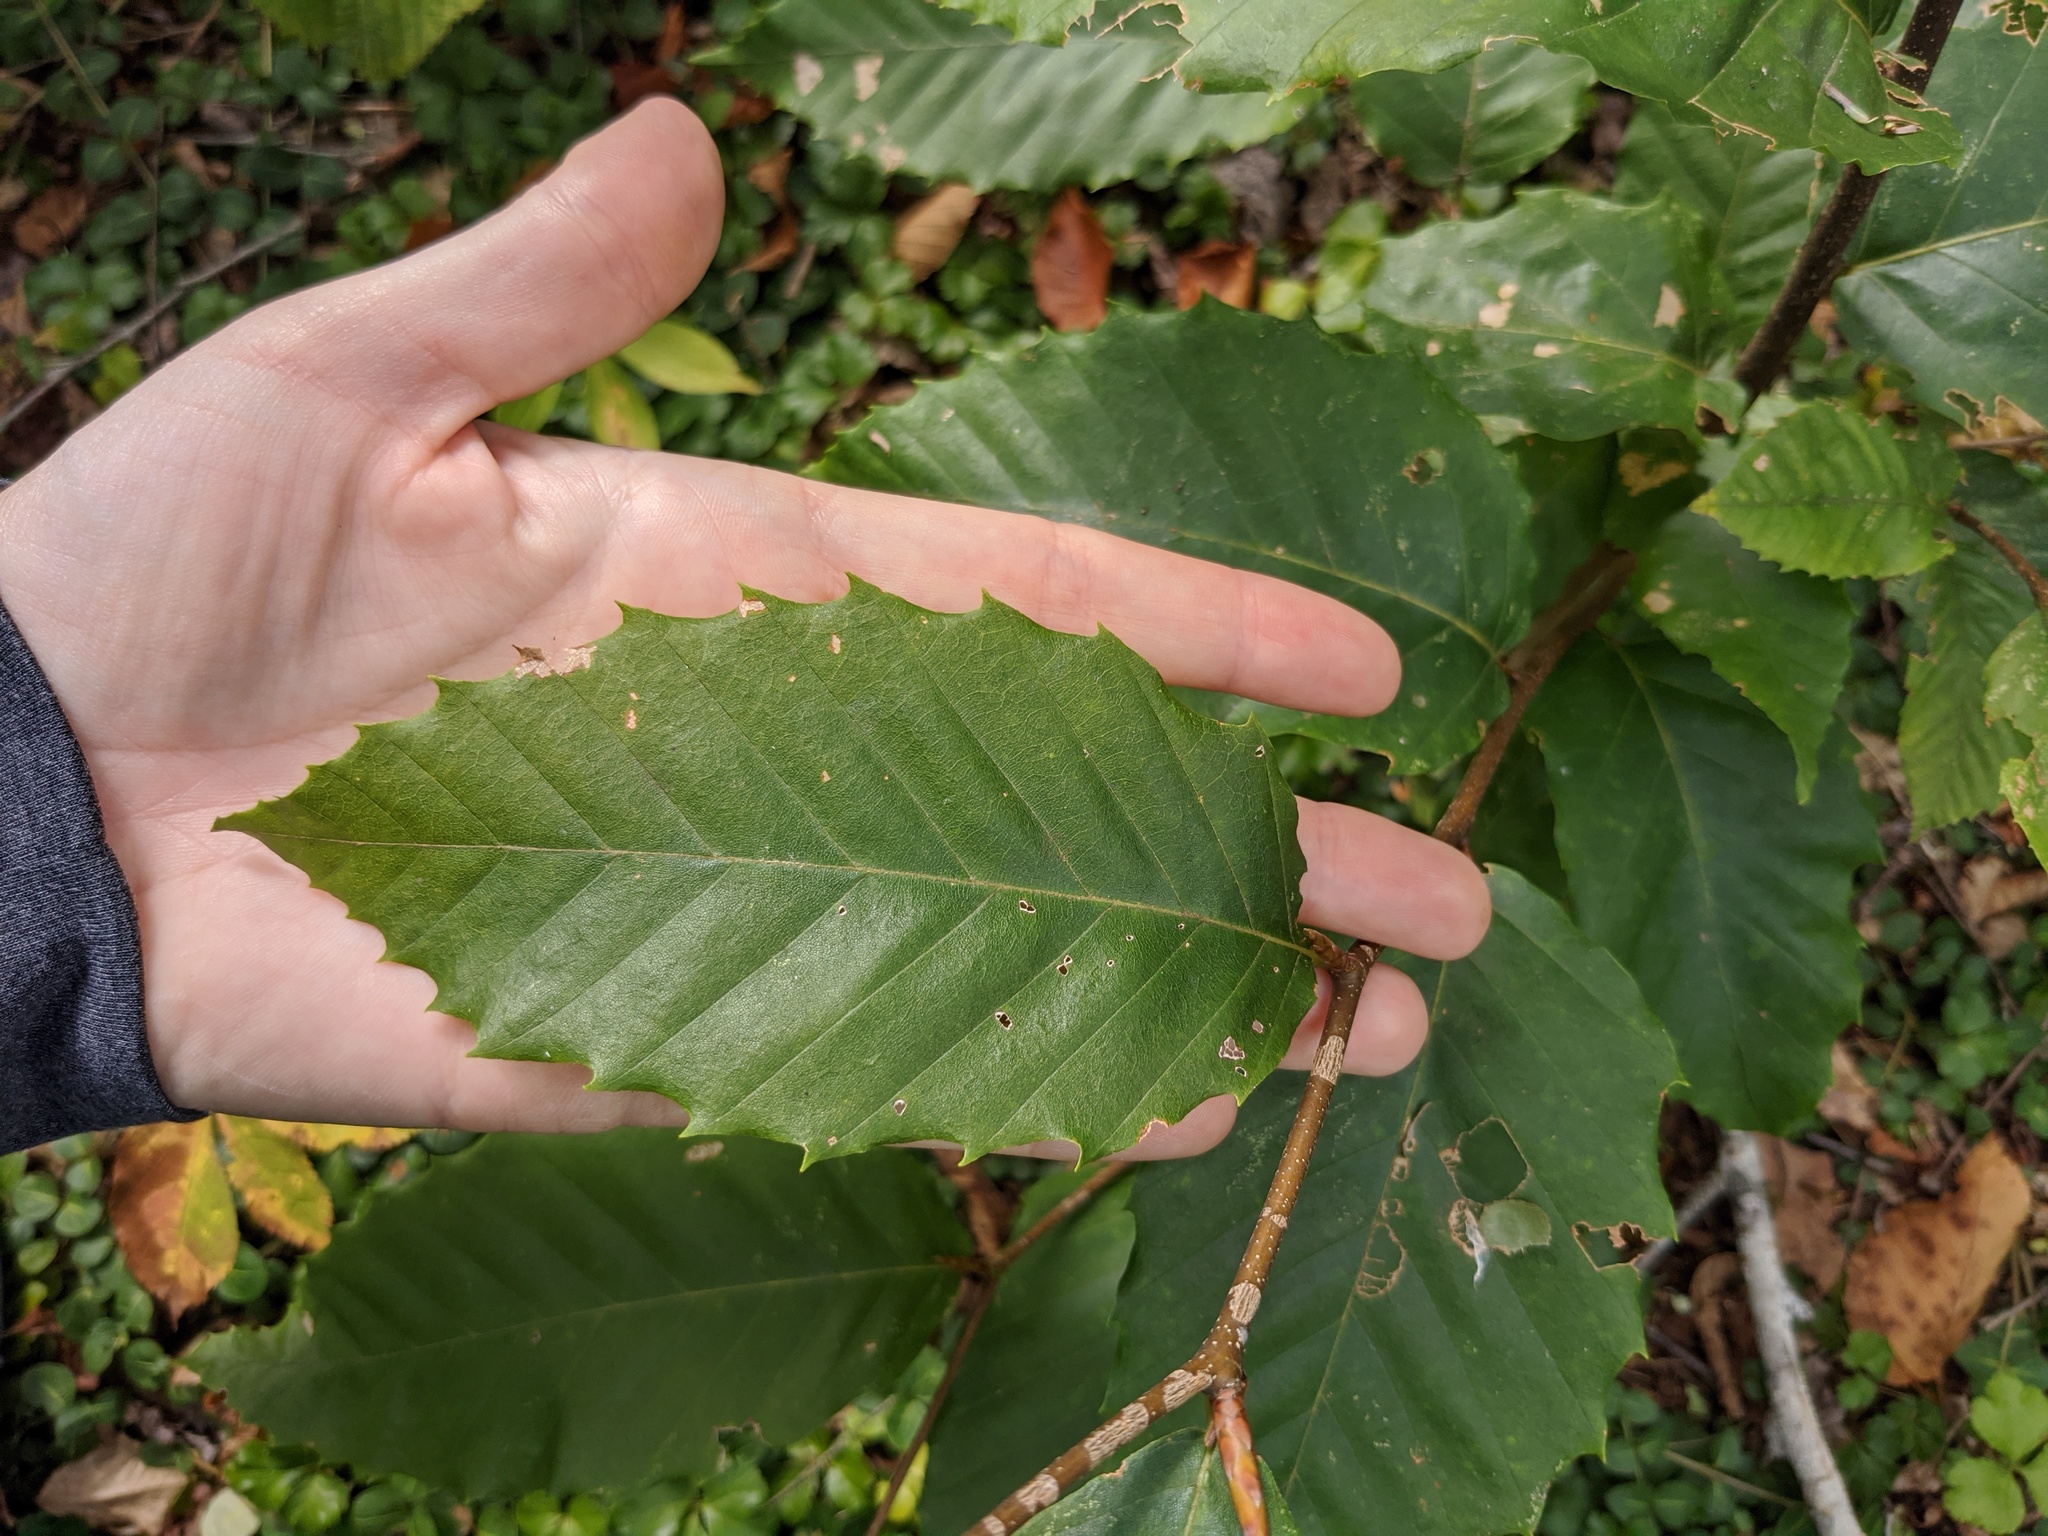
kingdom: Plantae
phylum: Tracheophyta
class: Magnoliopsida
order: Fagales
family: Fagaceae
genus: Fagus
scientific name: Fagus grandifolia
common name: American beech
